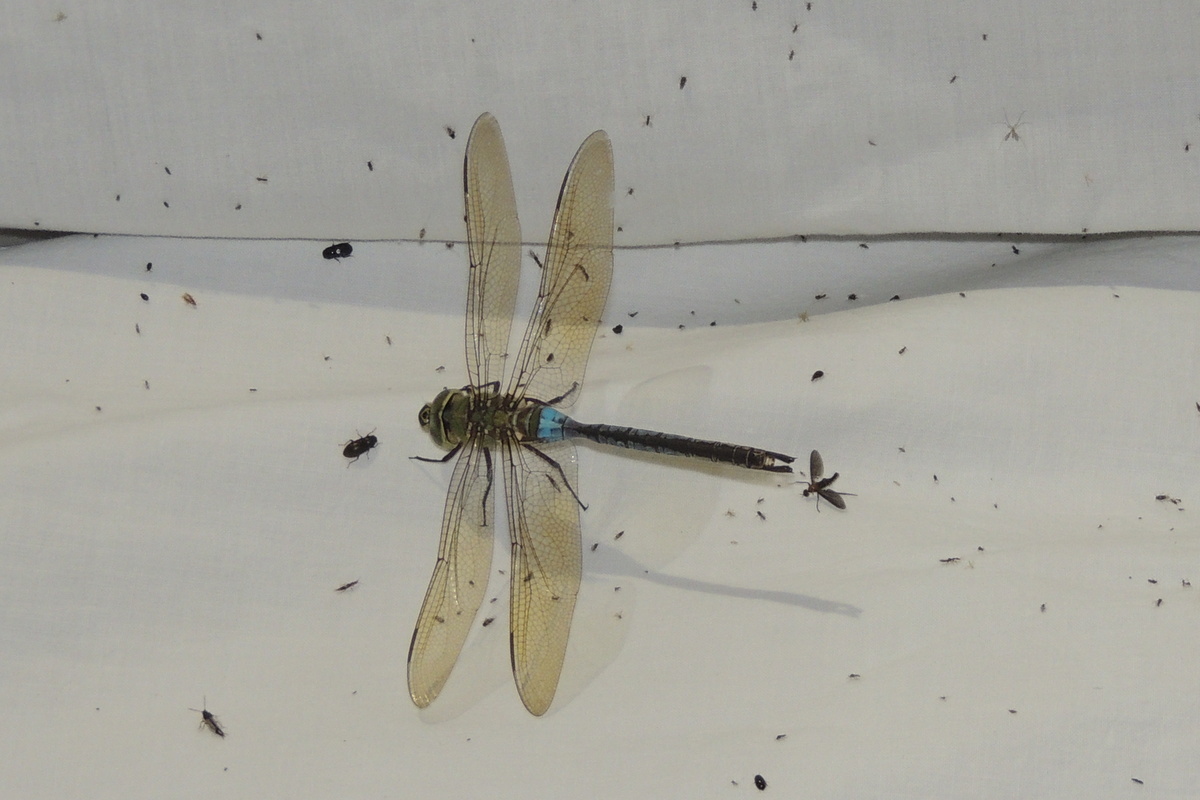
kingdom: Animalia
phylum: Arthropoda
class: Insecta
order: Odonata
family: Aeshnidae
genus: Anax
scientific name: Anax junius
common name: Common green darner
